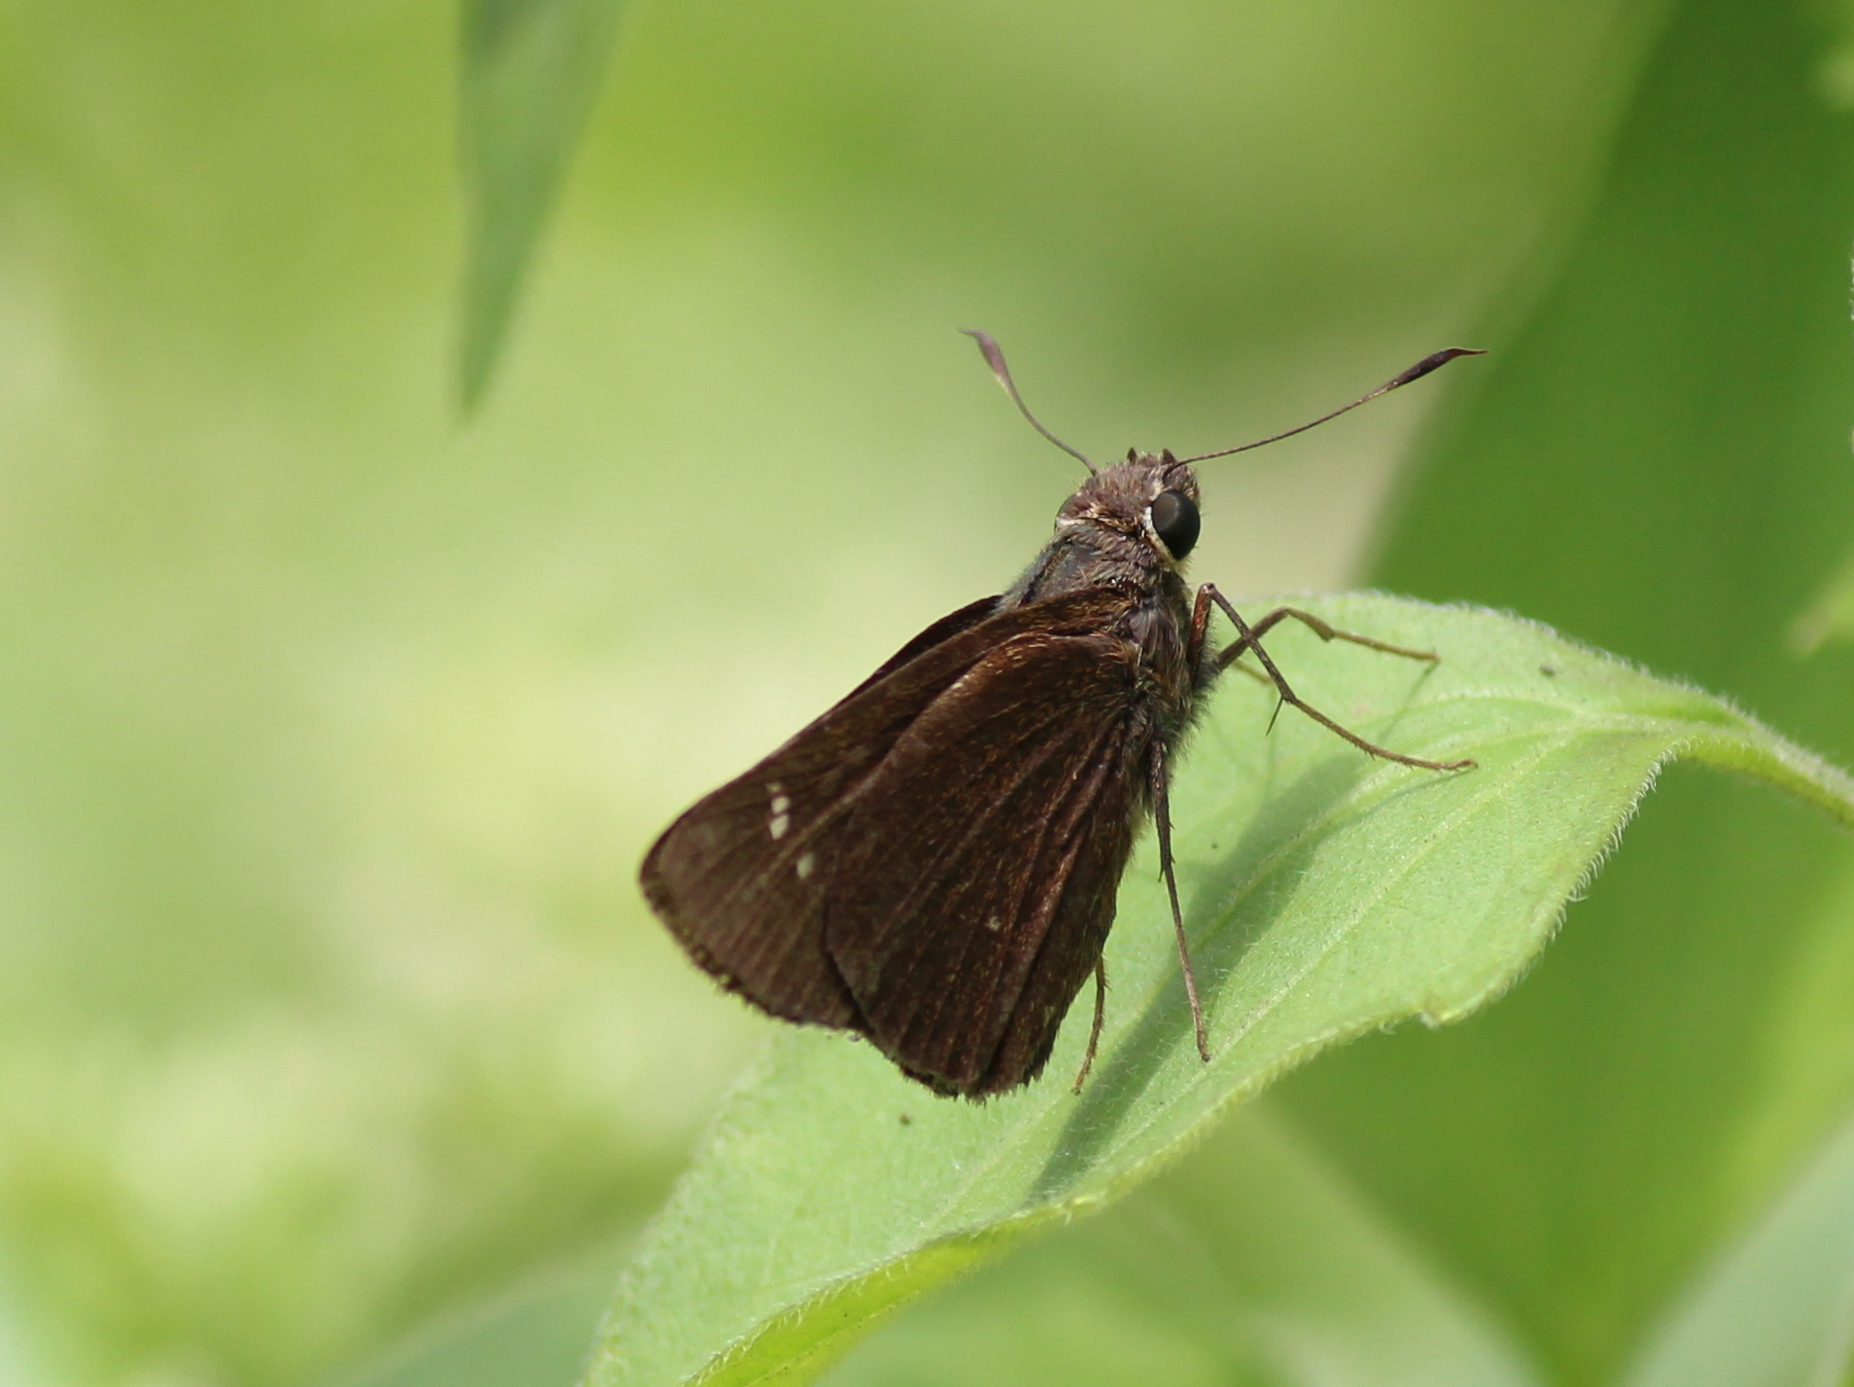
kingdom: Animalia
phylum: Arthropoda
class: Insecta
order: Lepidoptera
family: Hesperiidae
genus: Caltoris
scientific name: Caltoris kumara
